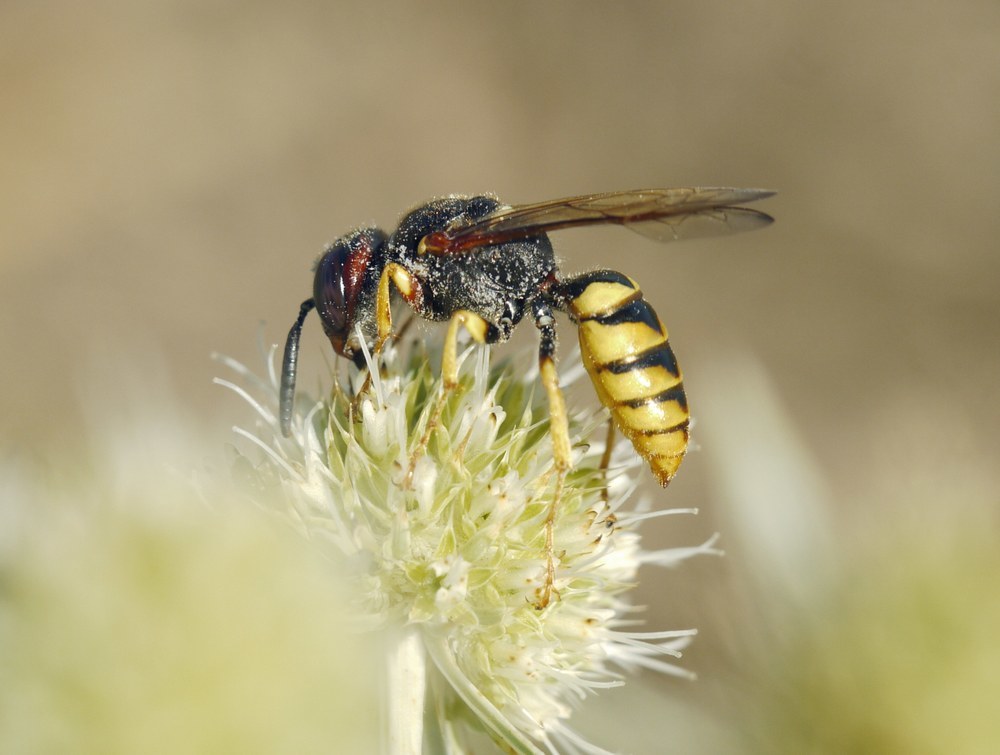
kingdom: Animalia
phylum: Arthropoda
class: Insecta
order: Hymenoptera
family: Crabronidae
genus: Philanthus
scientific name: Philanthus triangulum
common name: Bee wolf
